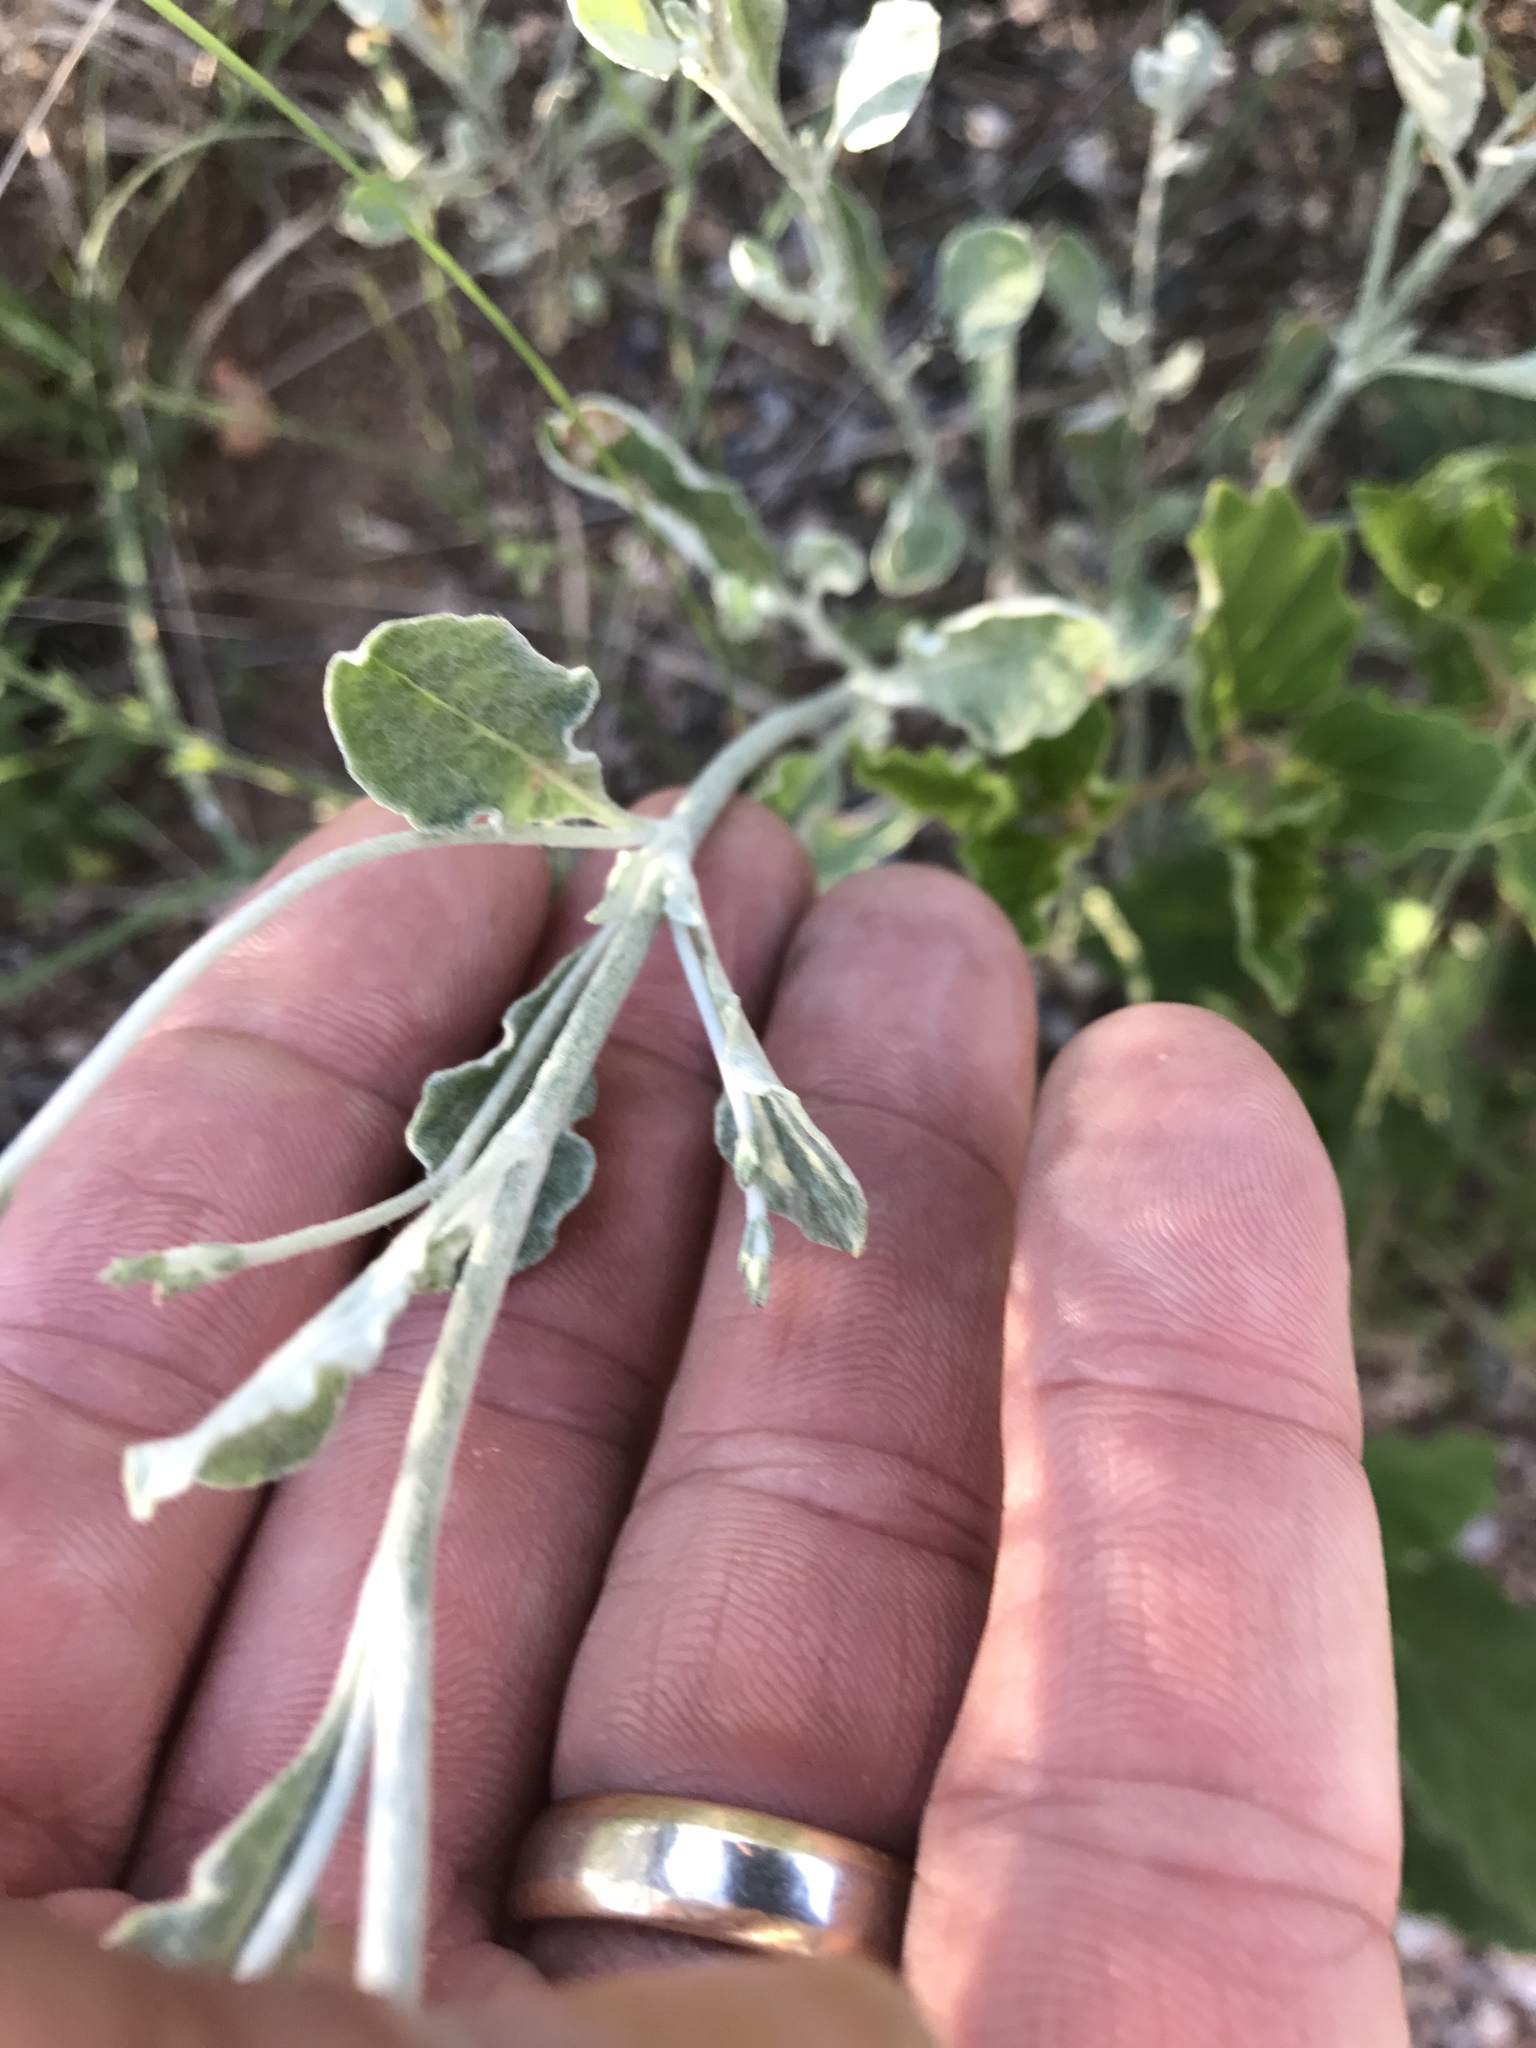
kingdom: Plantae
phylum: Tracheophyta
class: Magnoliopsida
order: Caryophyllales
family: Polygonaceae
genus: Eriogonum
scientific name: Eriogonum wrightii
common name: Bastard-sage
